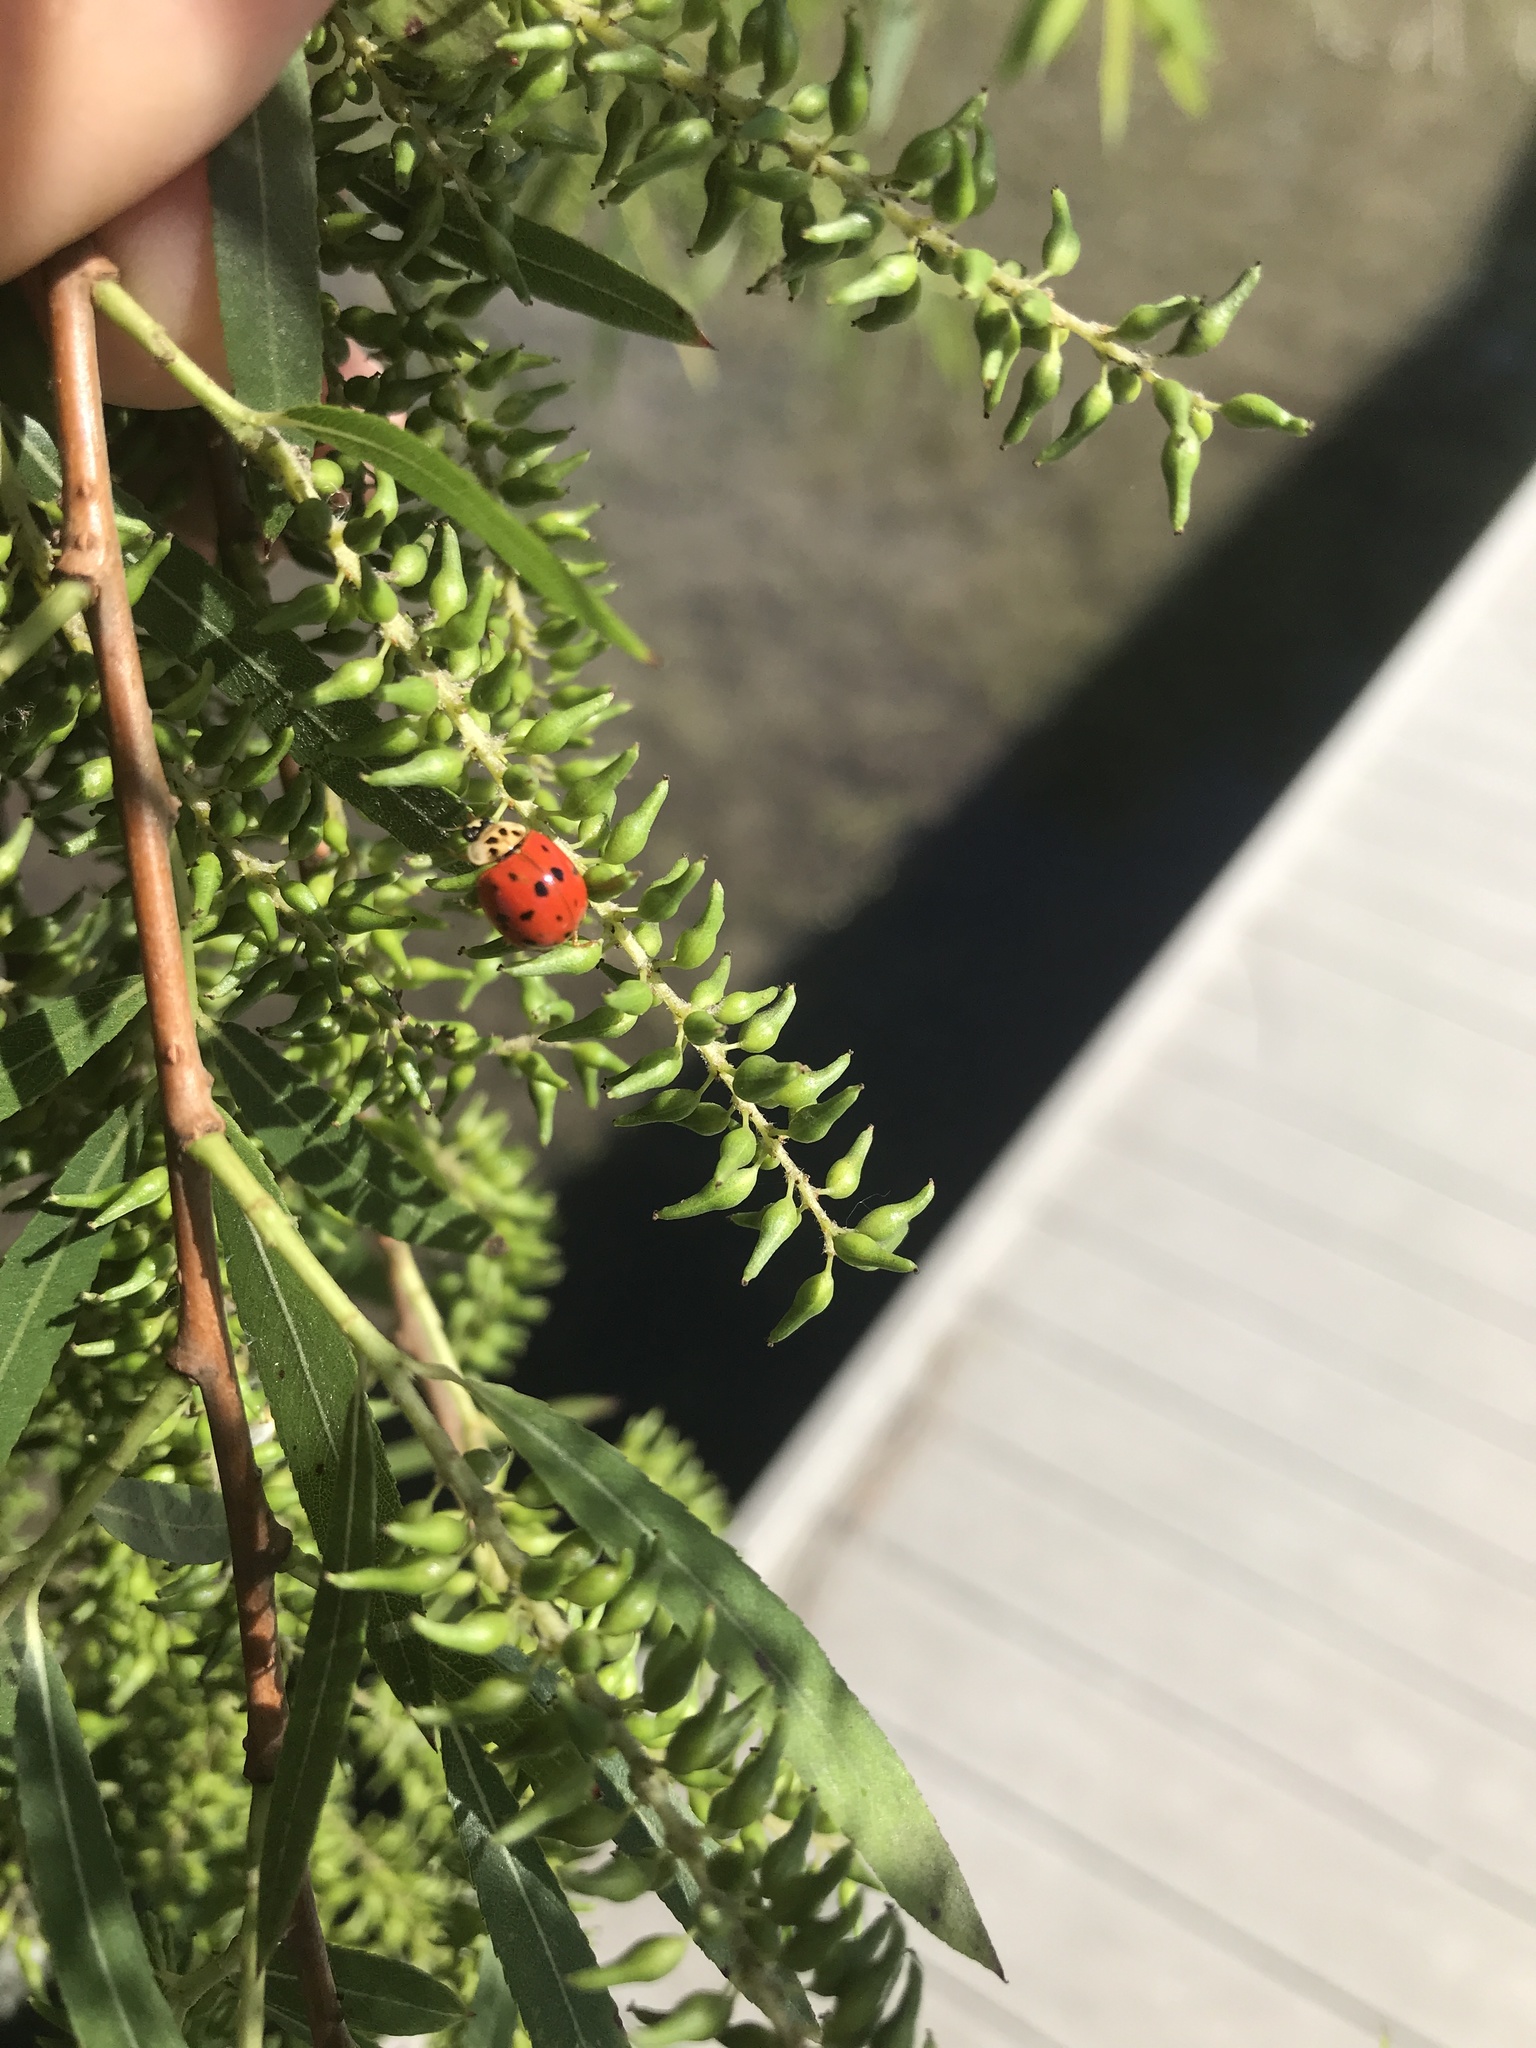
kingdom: Animalia
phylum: Arthropoda
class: Insecta
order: Coleoptera
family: Coccinellidae
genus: Harmonia
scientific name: Harmonia axyridis
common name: Harlequin ladybird
